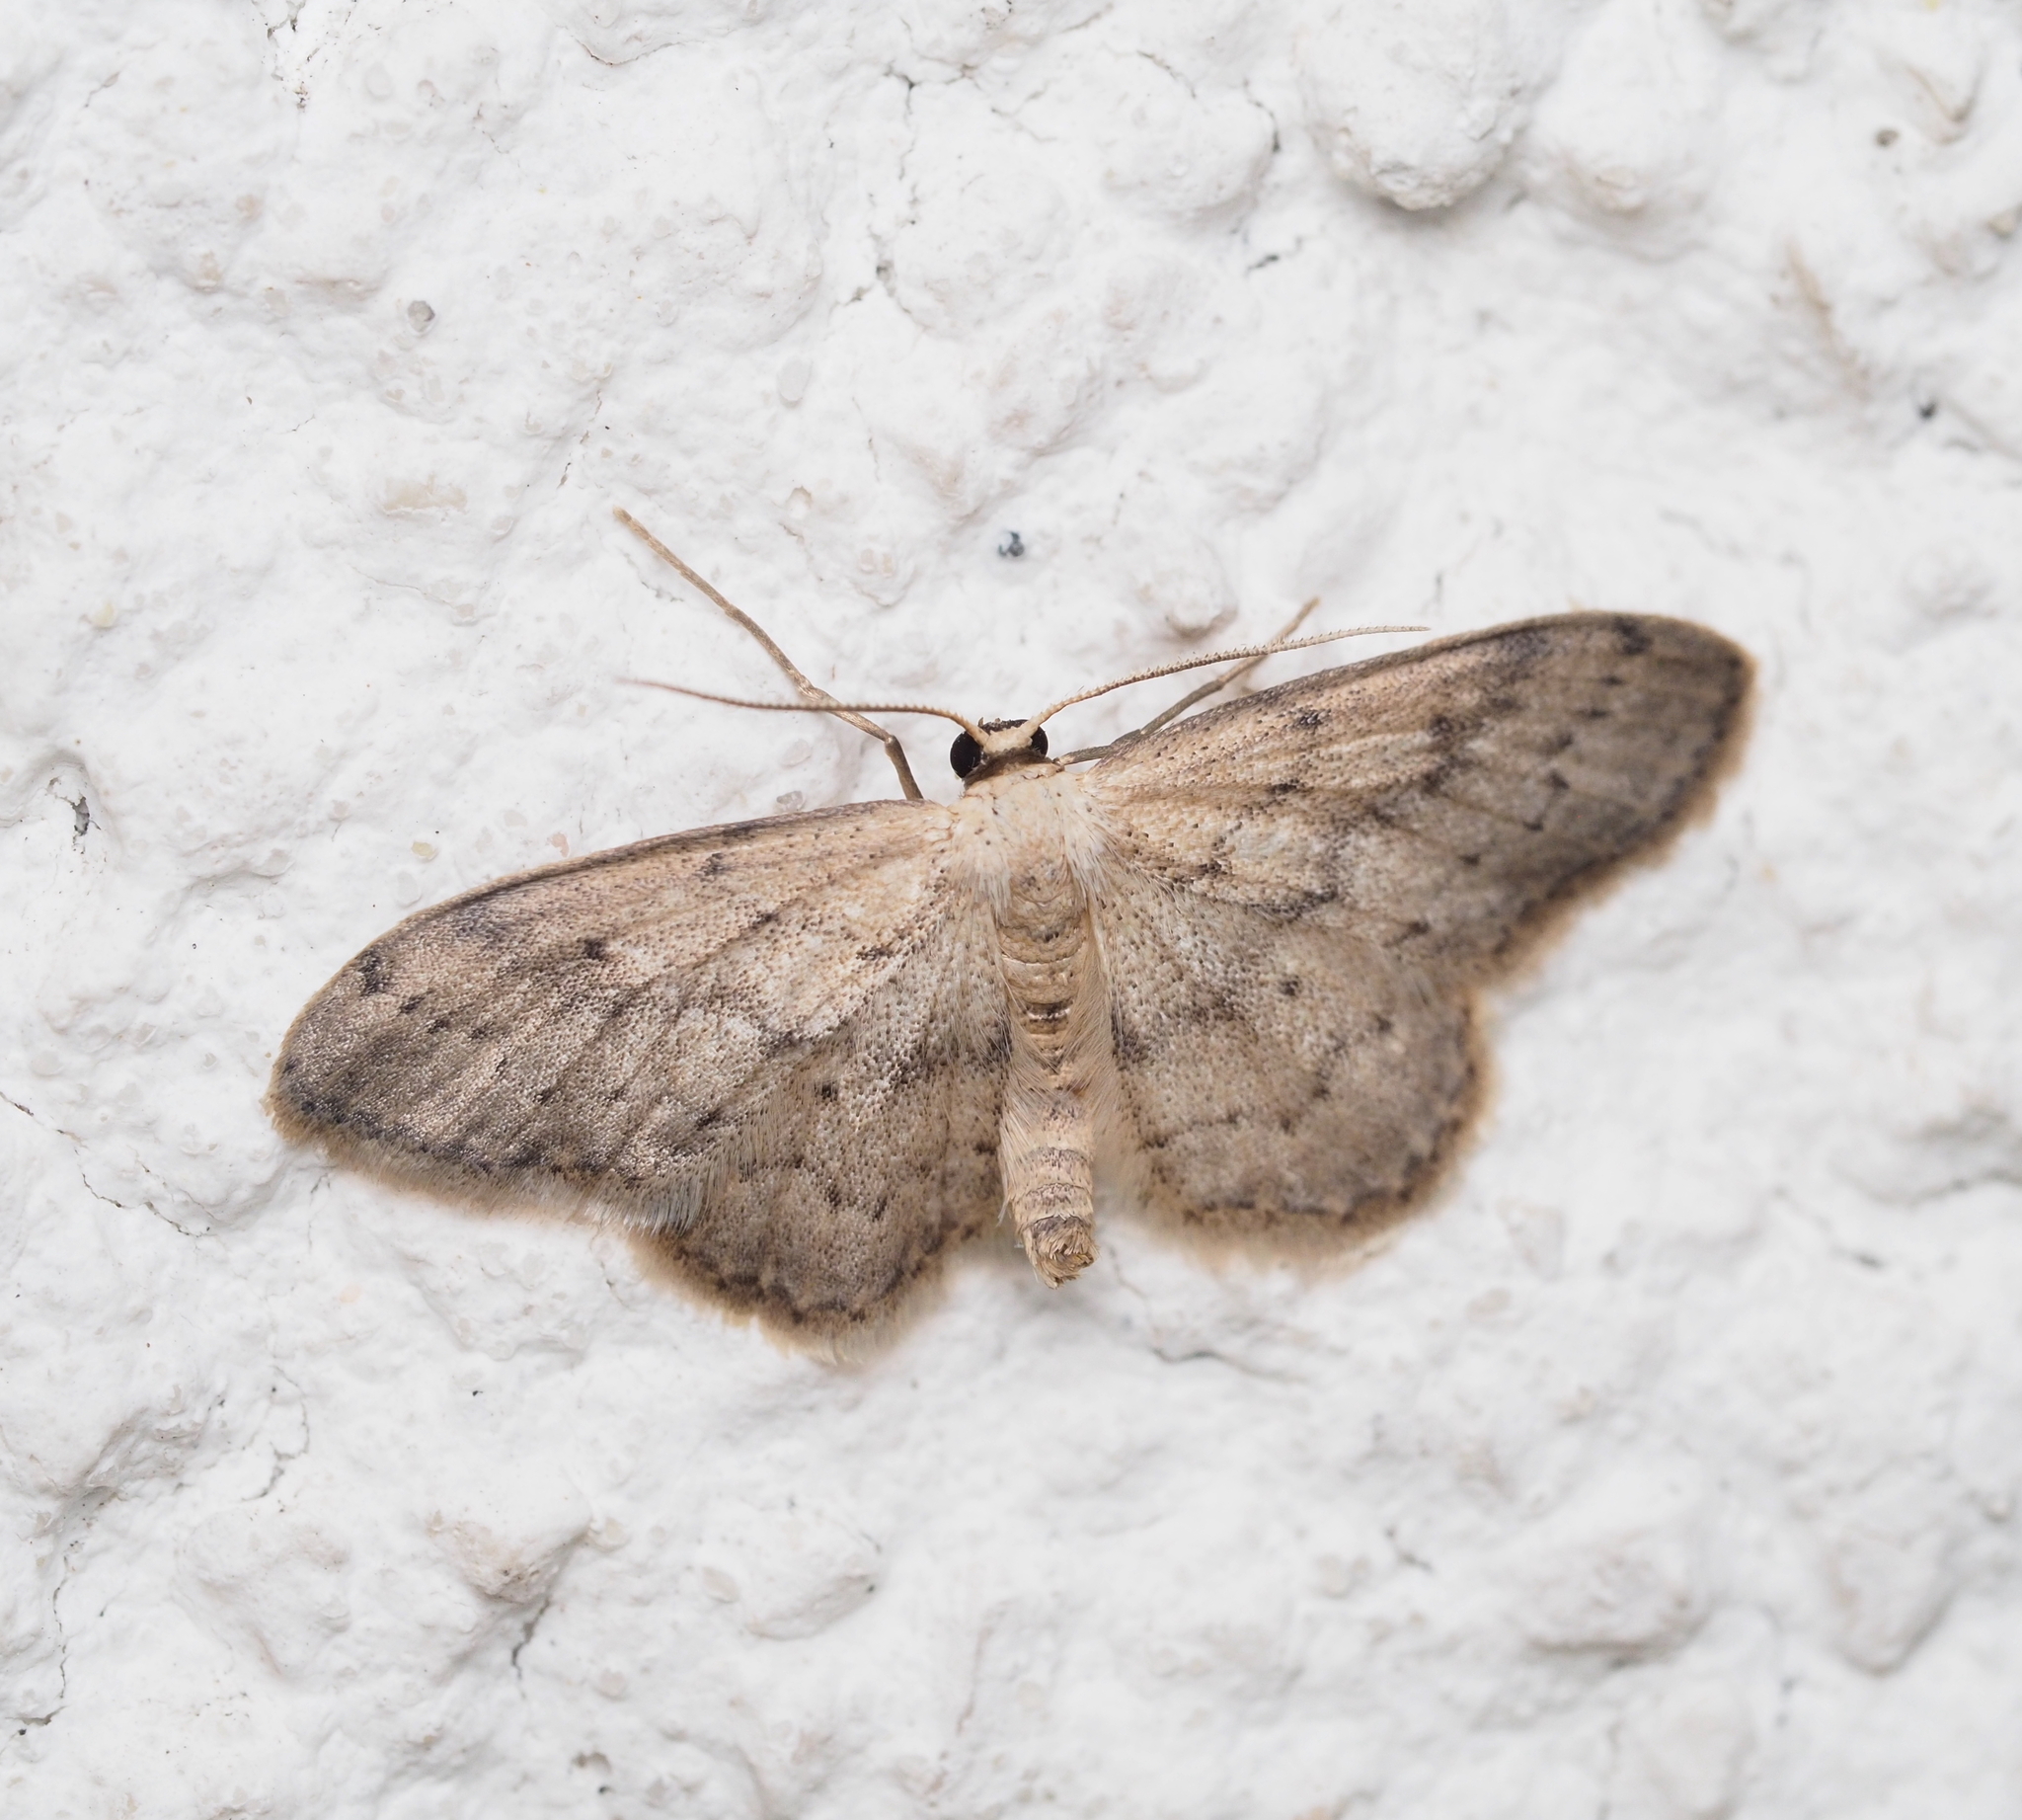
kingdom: Animalia
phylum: Arthropoda
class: Insecta
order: Lepidoptera
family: Geometridae
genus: Idaea
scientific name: Idaea seriata
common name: Small dusty wave
